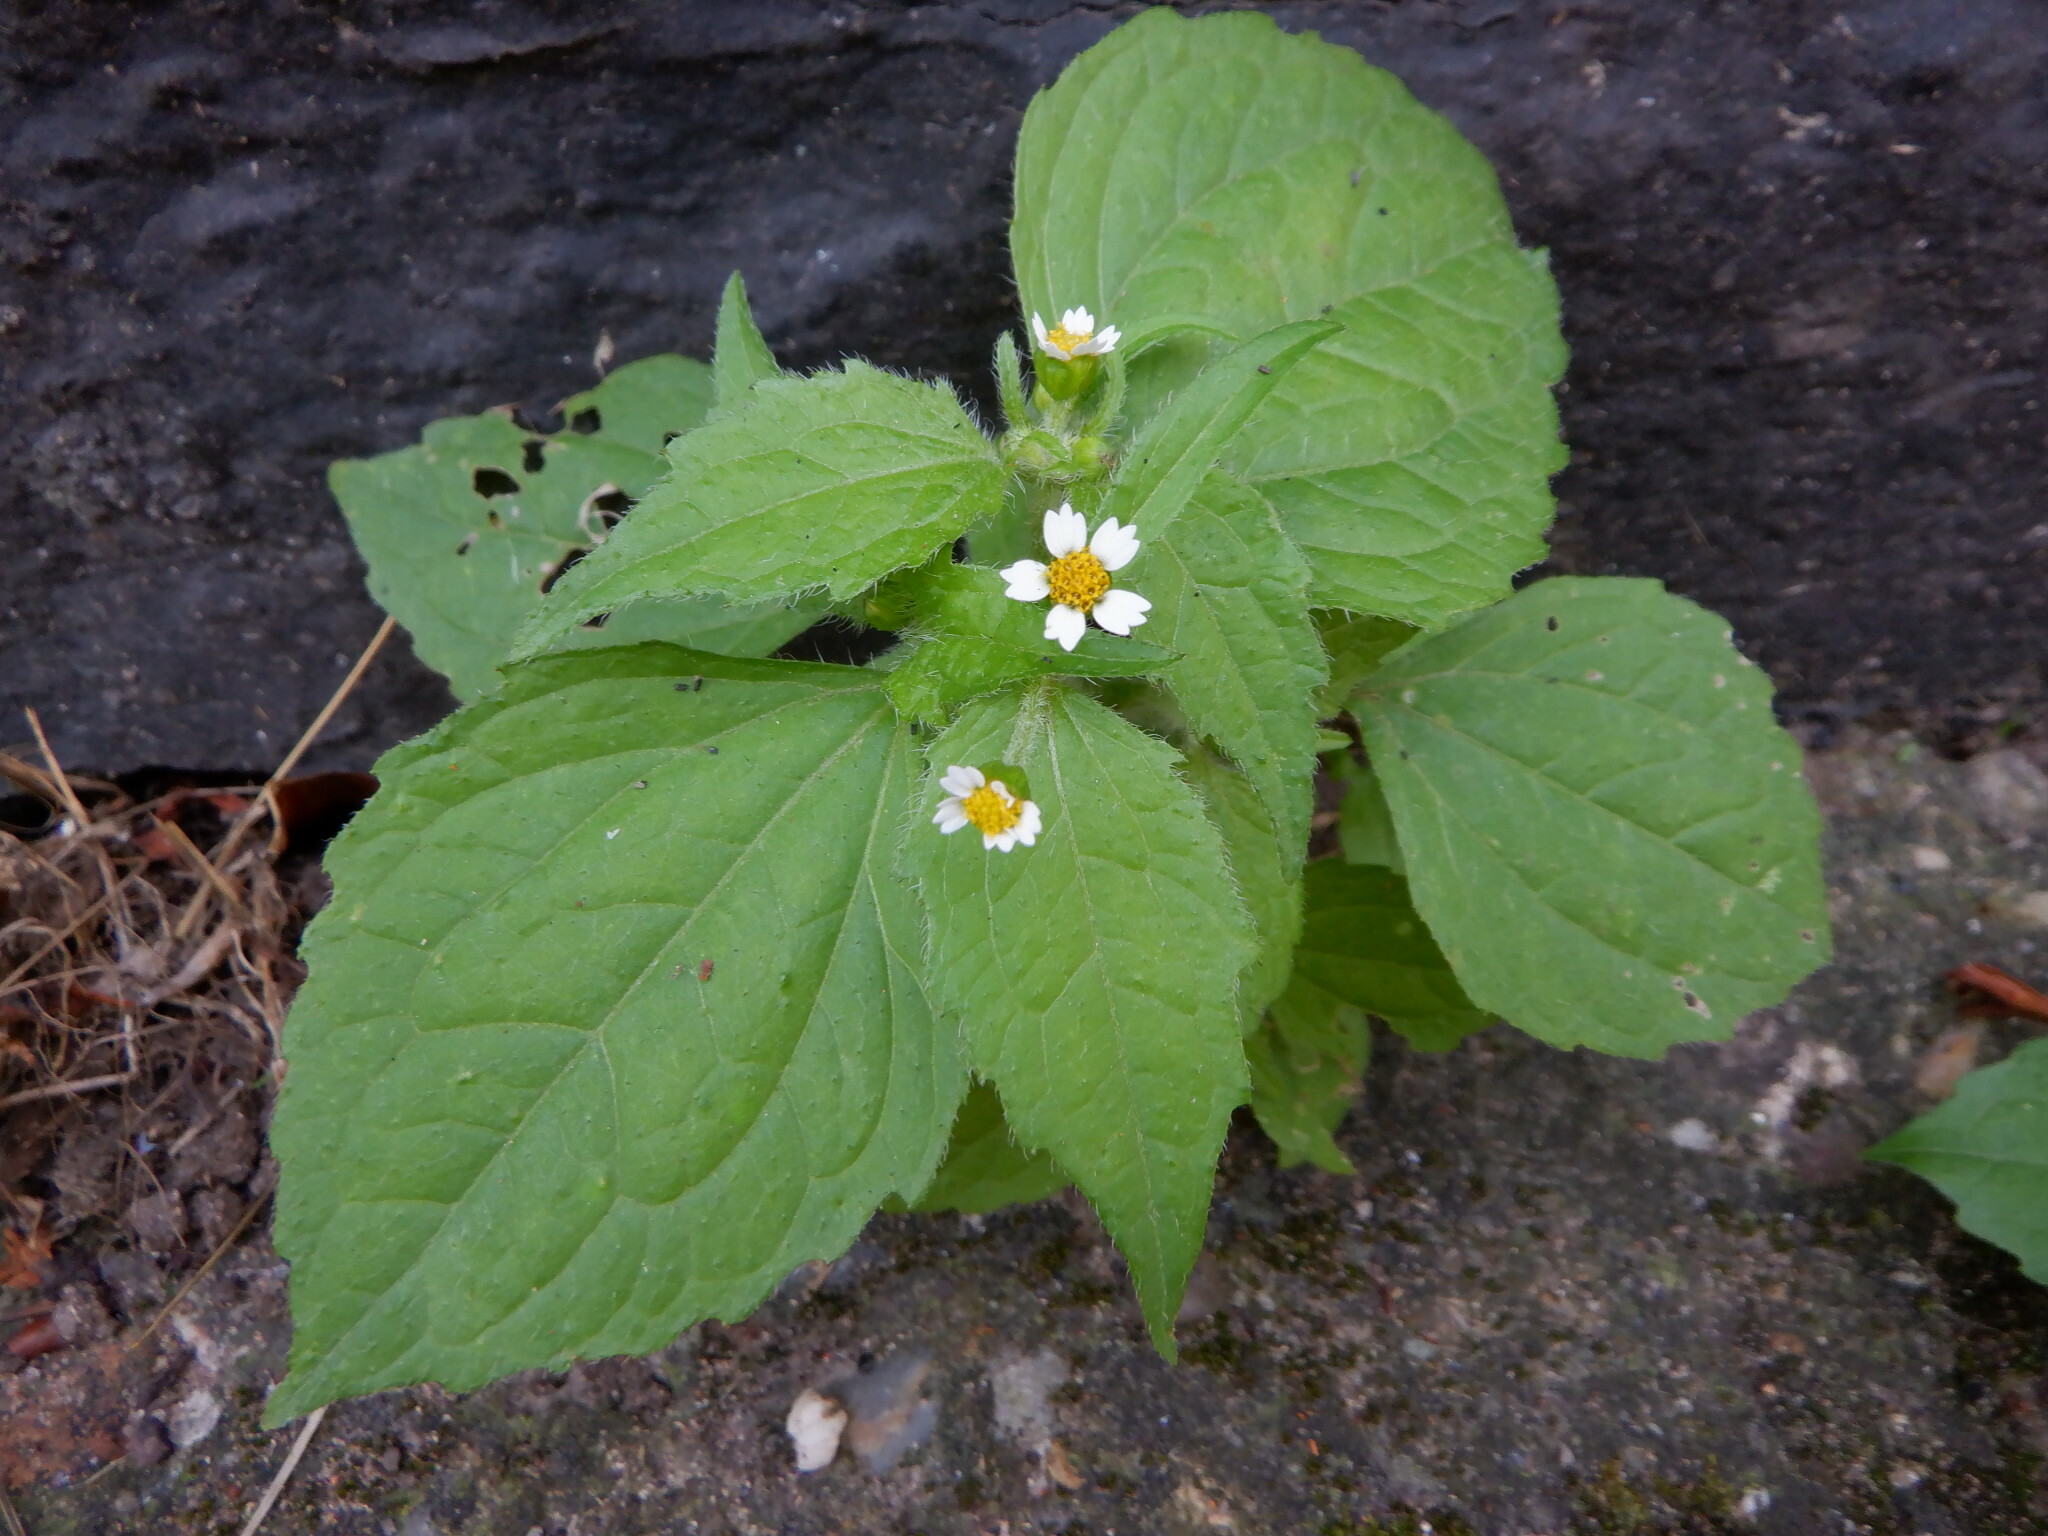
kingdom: Plantae
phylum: Tracheophyta
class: Magnoliopsida
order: Asterales
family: Asteraceae
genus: Galinsoga
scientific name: Galinsoga quadriradiata
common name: Shaggy soldier
